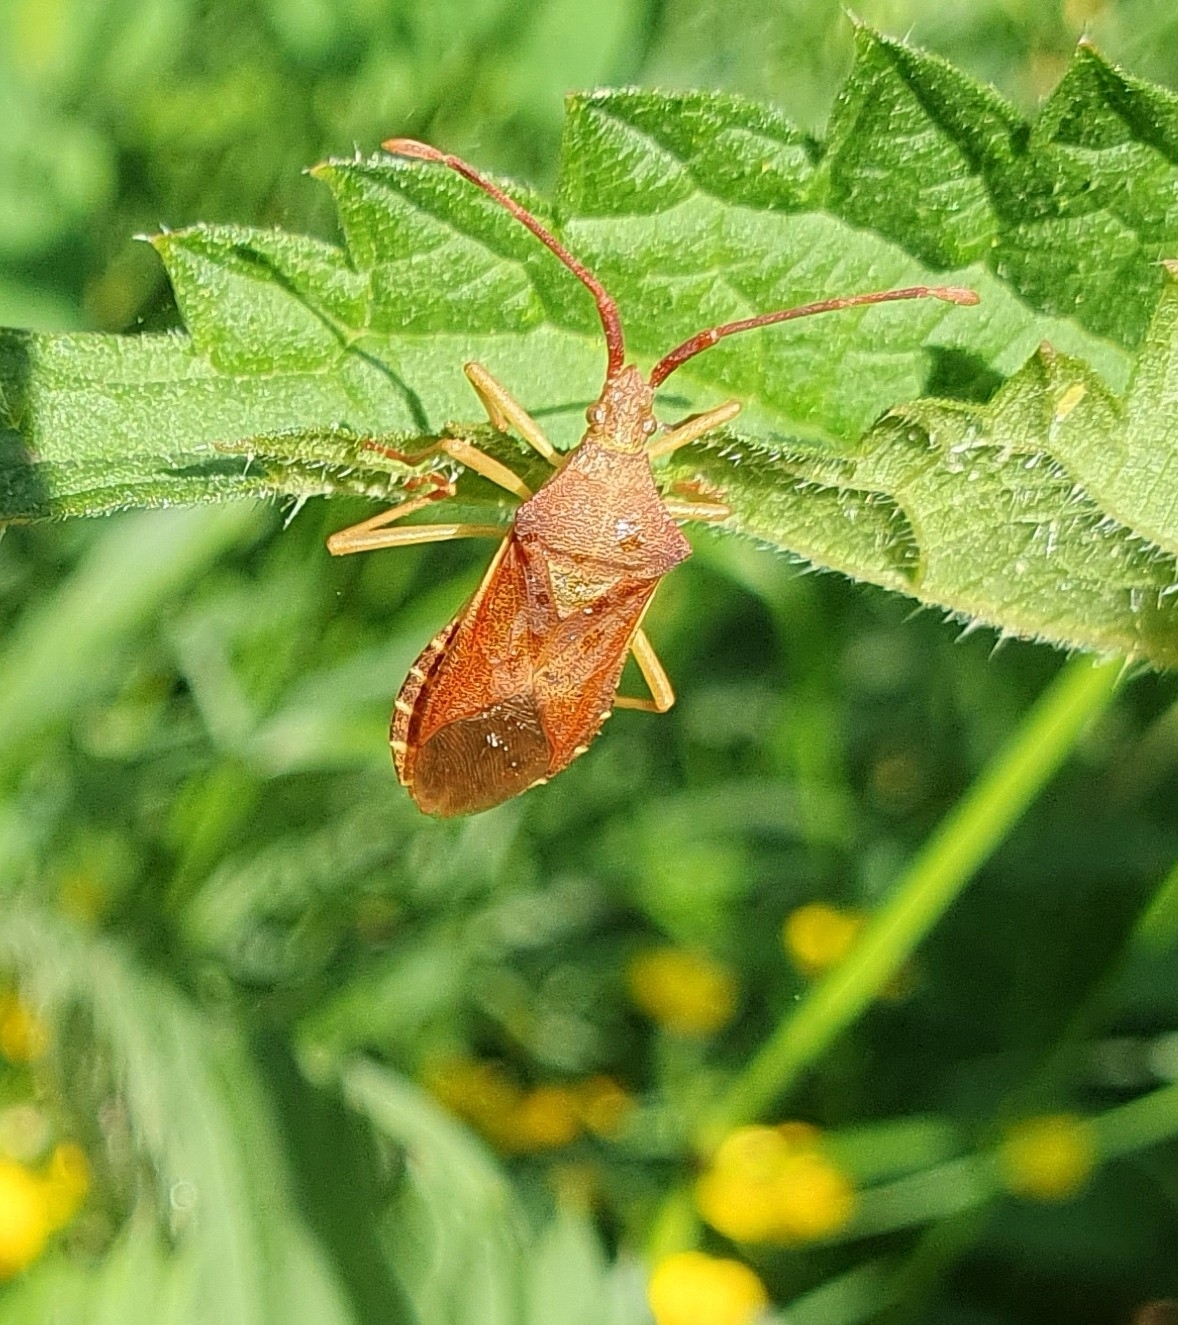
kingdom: Animalia
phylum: Arthropoda
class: Insecta
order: Hemiptera
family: Coreidae
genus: Gonocerus
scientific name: Gonocerus acuteangulatus
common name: Box bug
